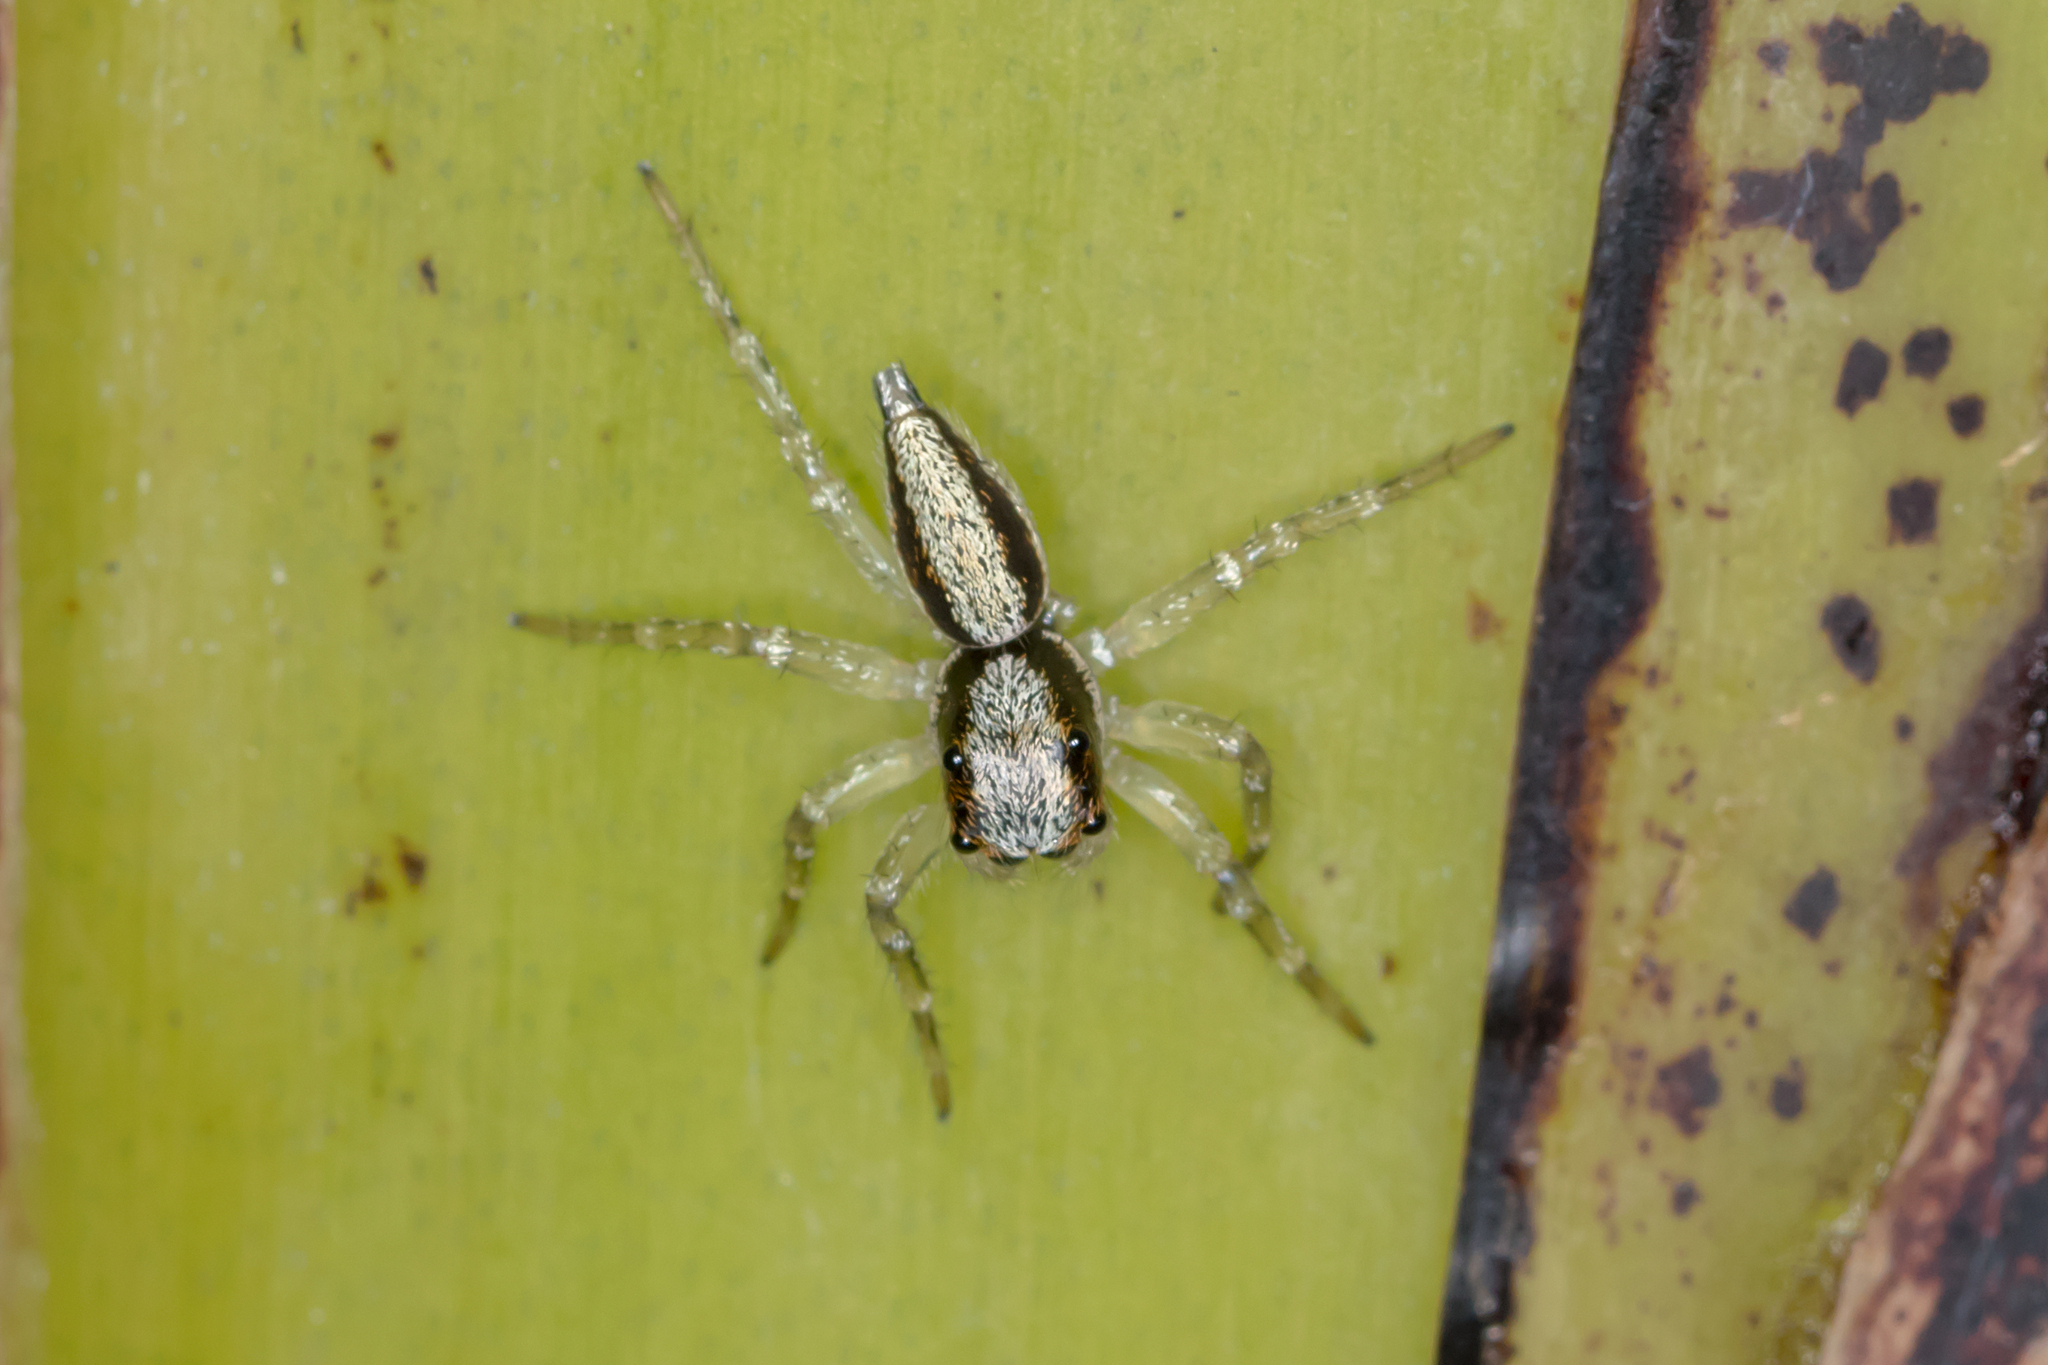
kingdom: Animalia
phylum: Arthropoda
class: Arachnida
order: Araneae
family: Salticidae
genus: Zenodorus
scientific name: Zenodorus swiftorum
